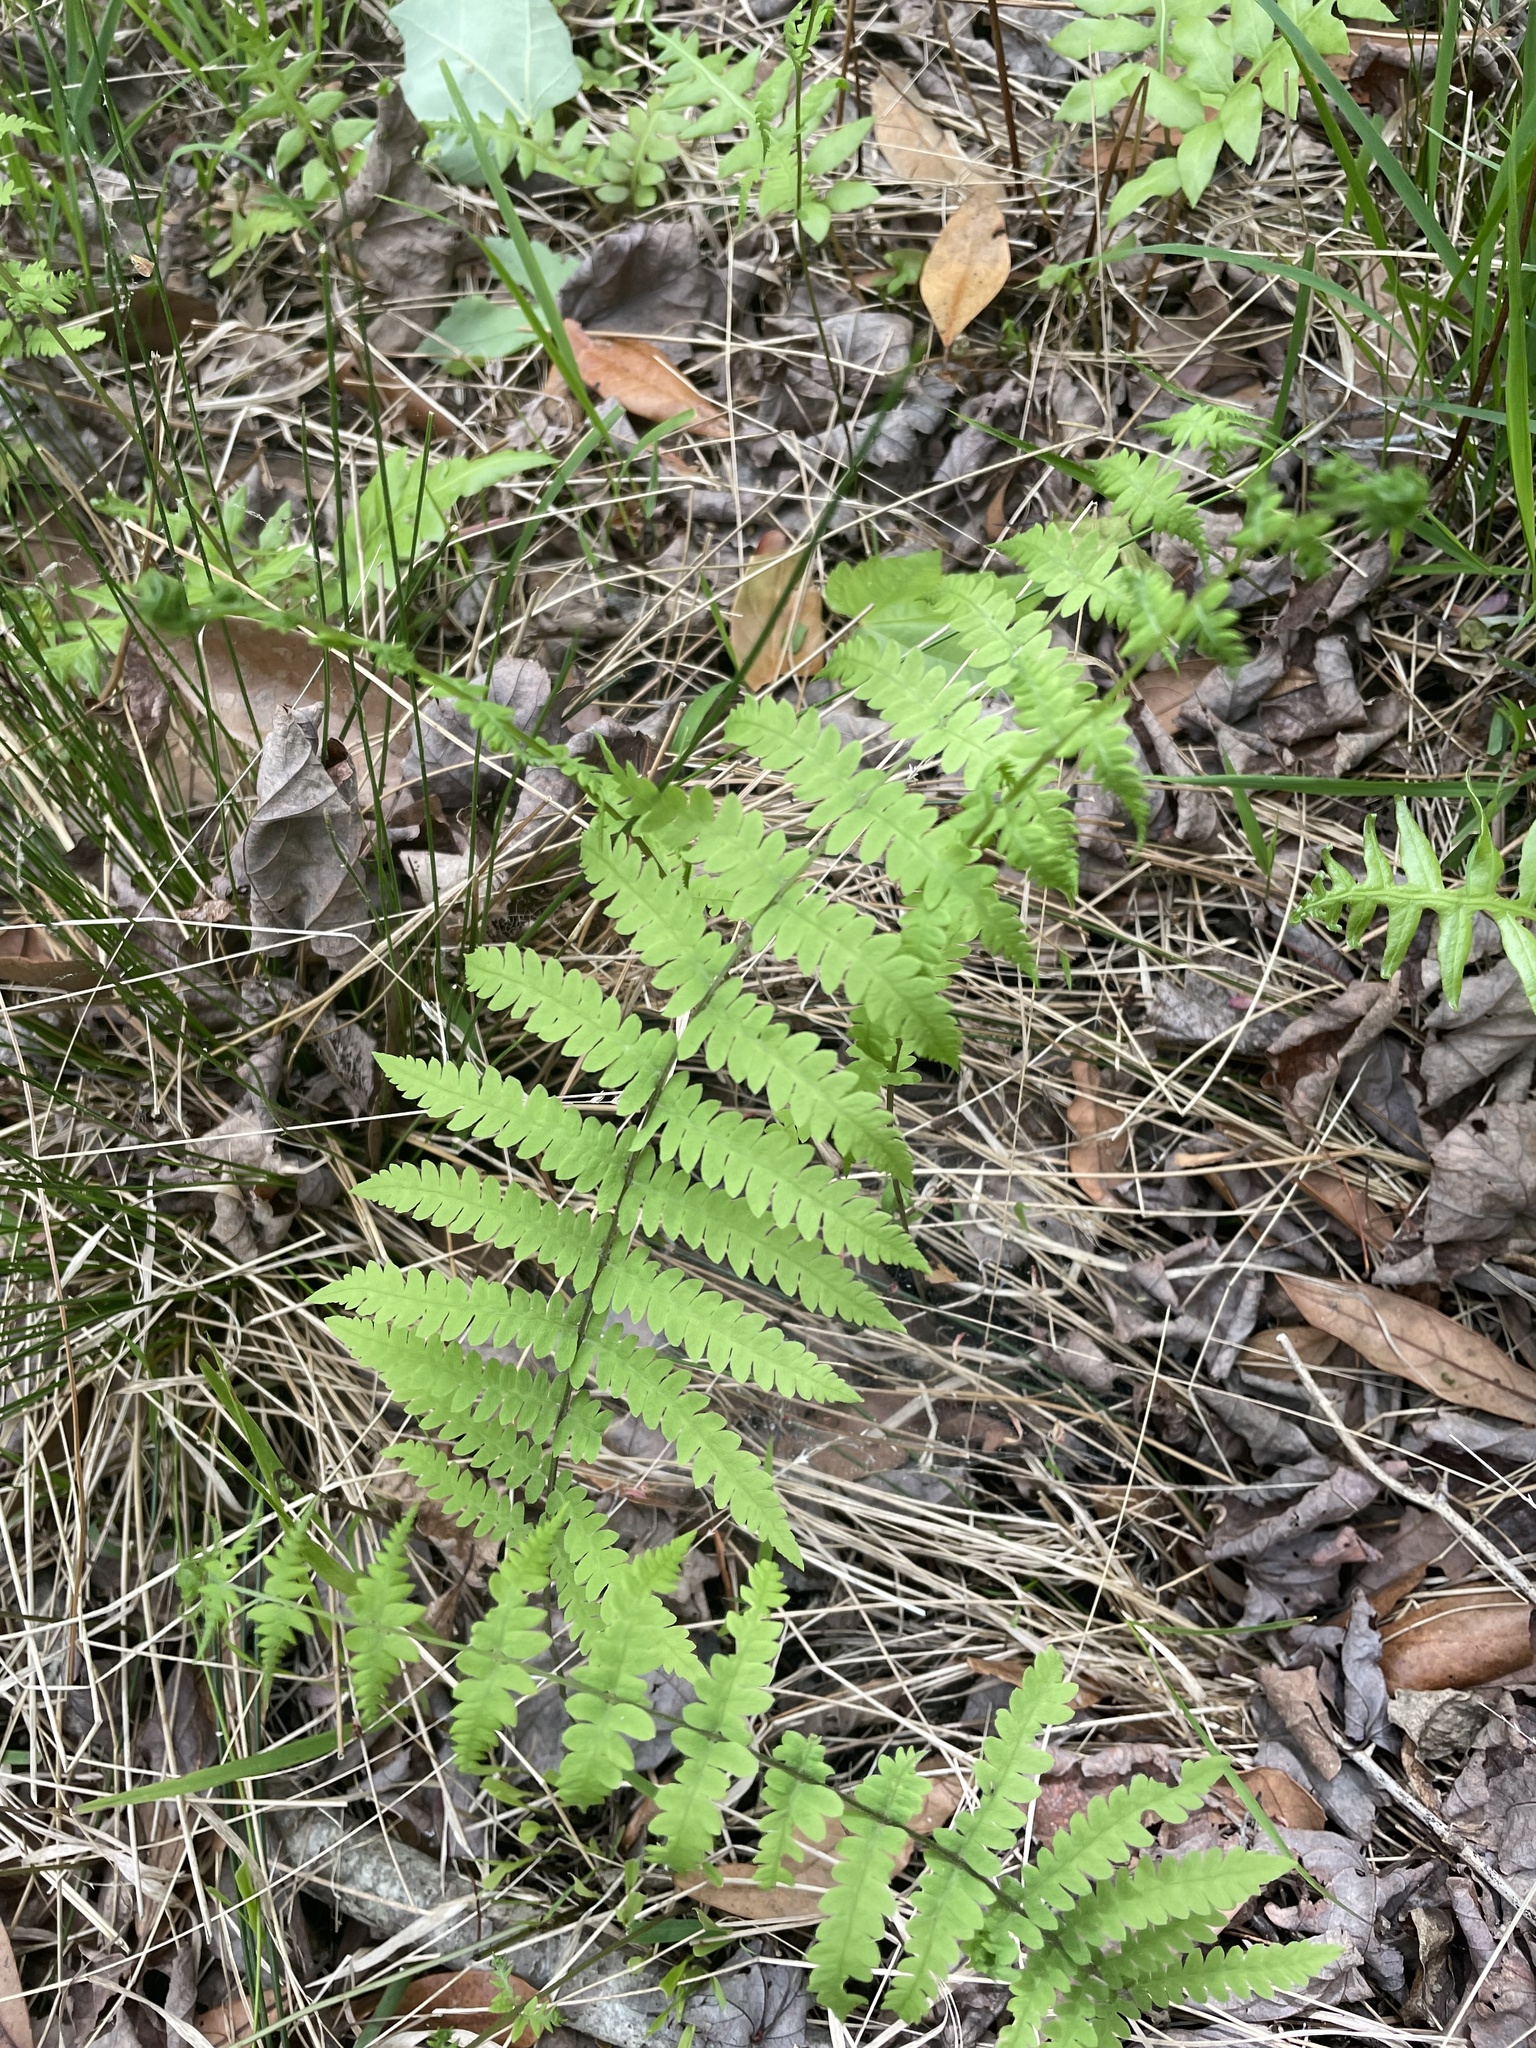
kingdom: Plantae
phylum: Tracheophyta
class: Polypodiopsida
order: Polypodiales
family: Thelypteridaceae
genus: Thelypteris
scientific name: Thelypteris palustris
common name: Marsh fern
